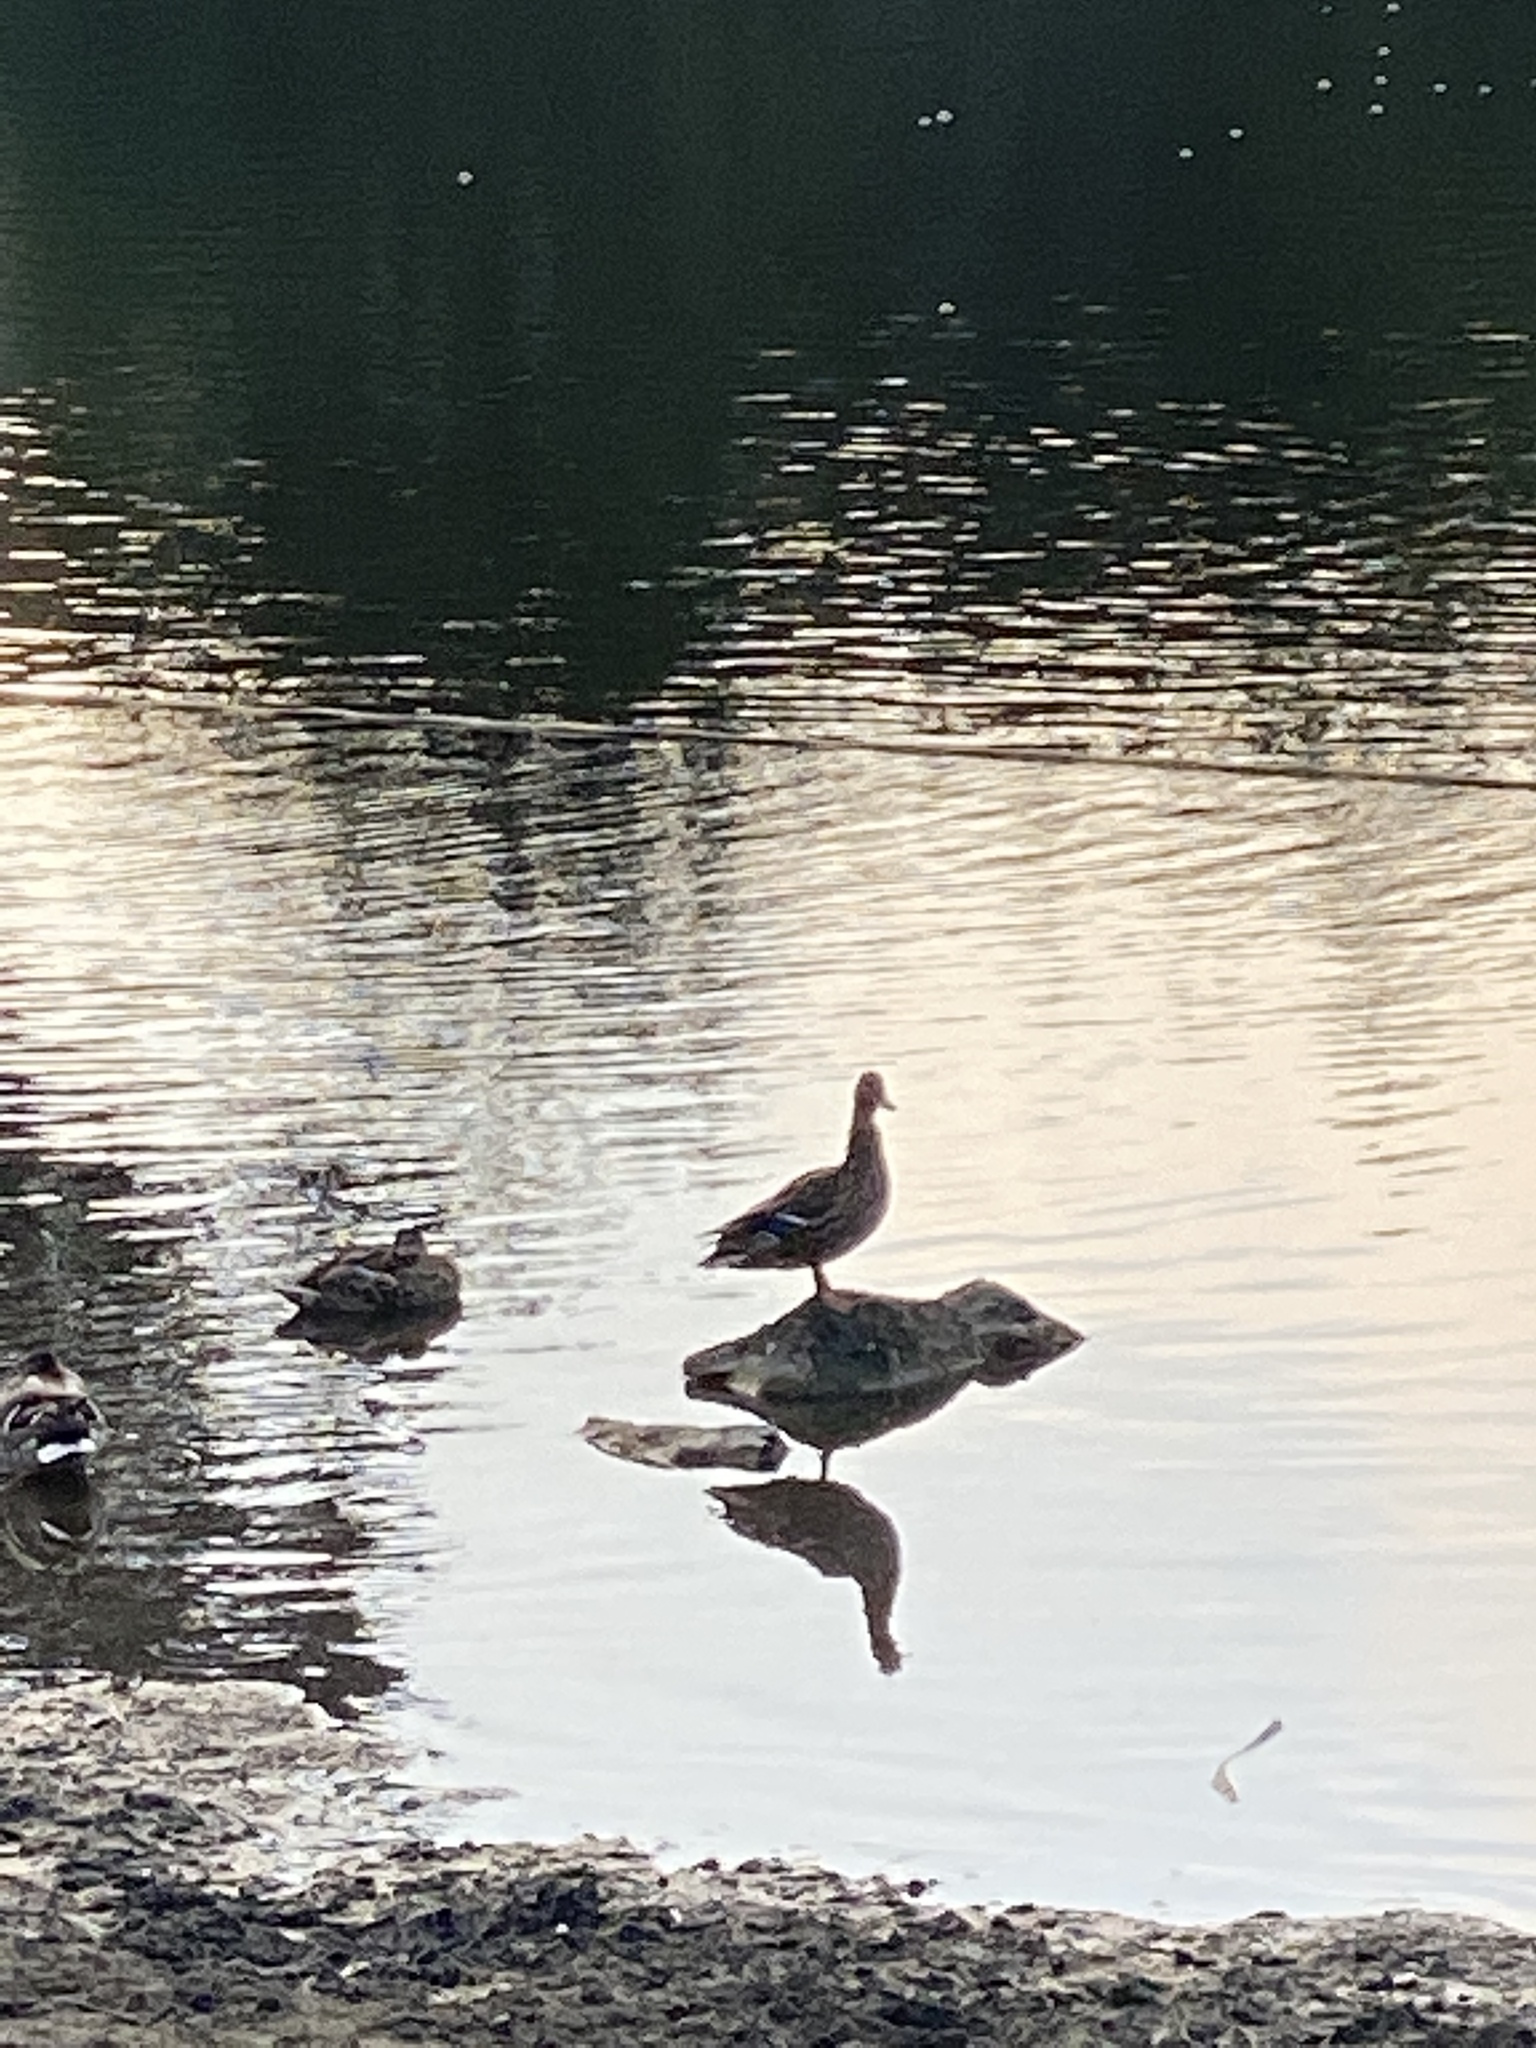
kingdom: Animalia
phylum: Chordata
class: Aves
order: Anseriformes
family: Anatidae
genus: Anas
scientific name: Anas platyrhynchos
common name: Mallard
